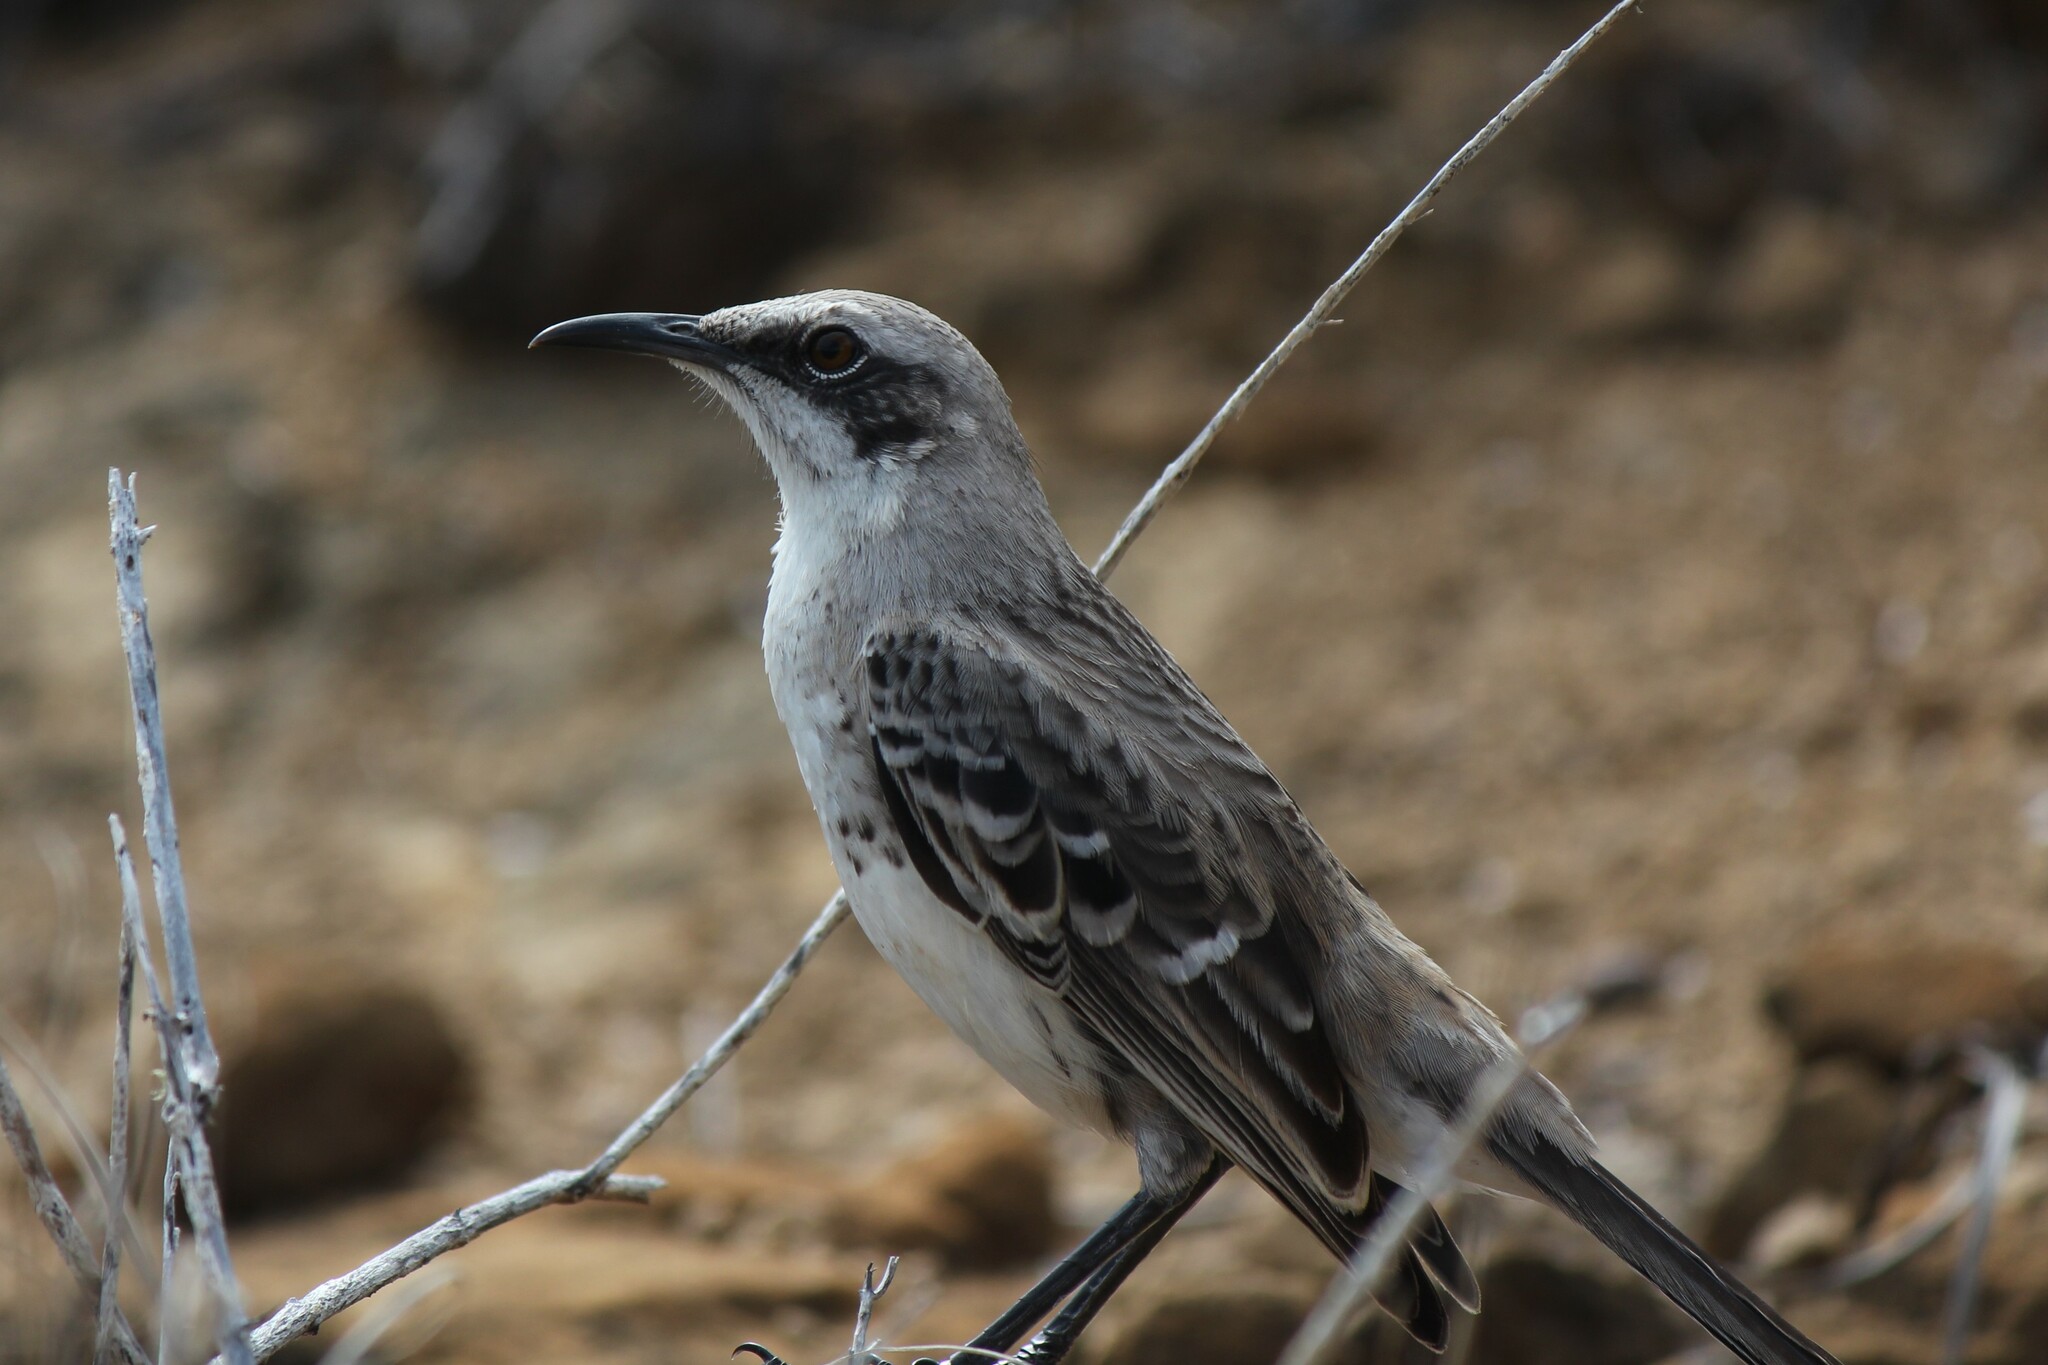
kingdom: Animalia
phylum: Chordata
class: Aves
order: Passeriformes
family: Mimidae
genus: Mimus
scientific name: Mimus melanotis
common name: San cristobal mockingbird
